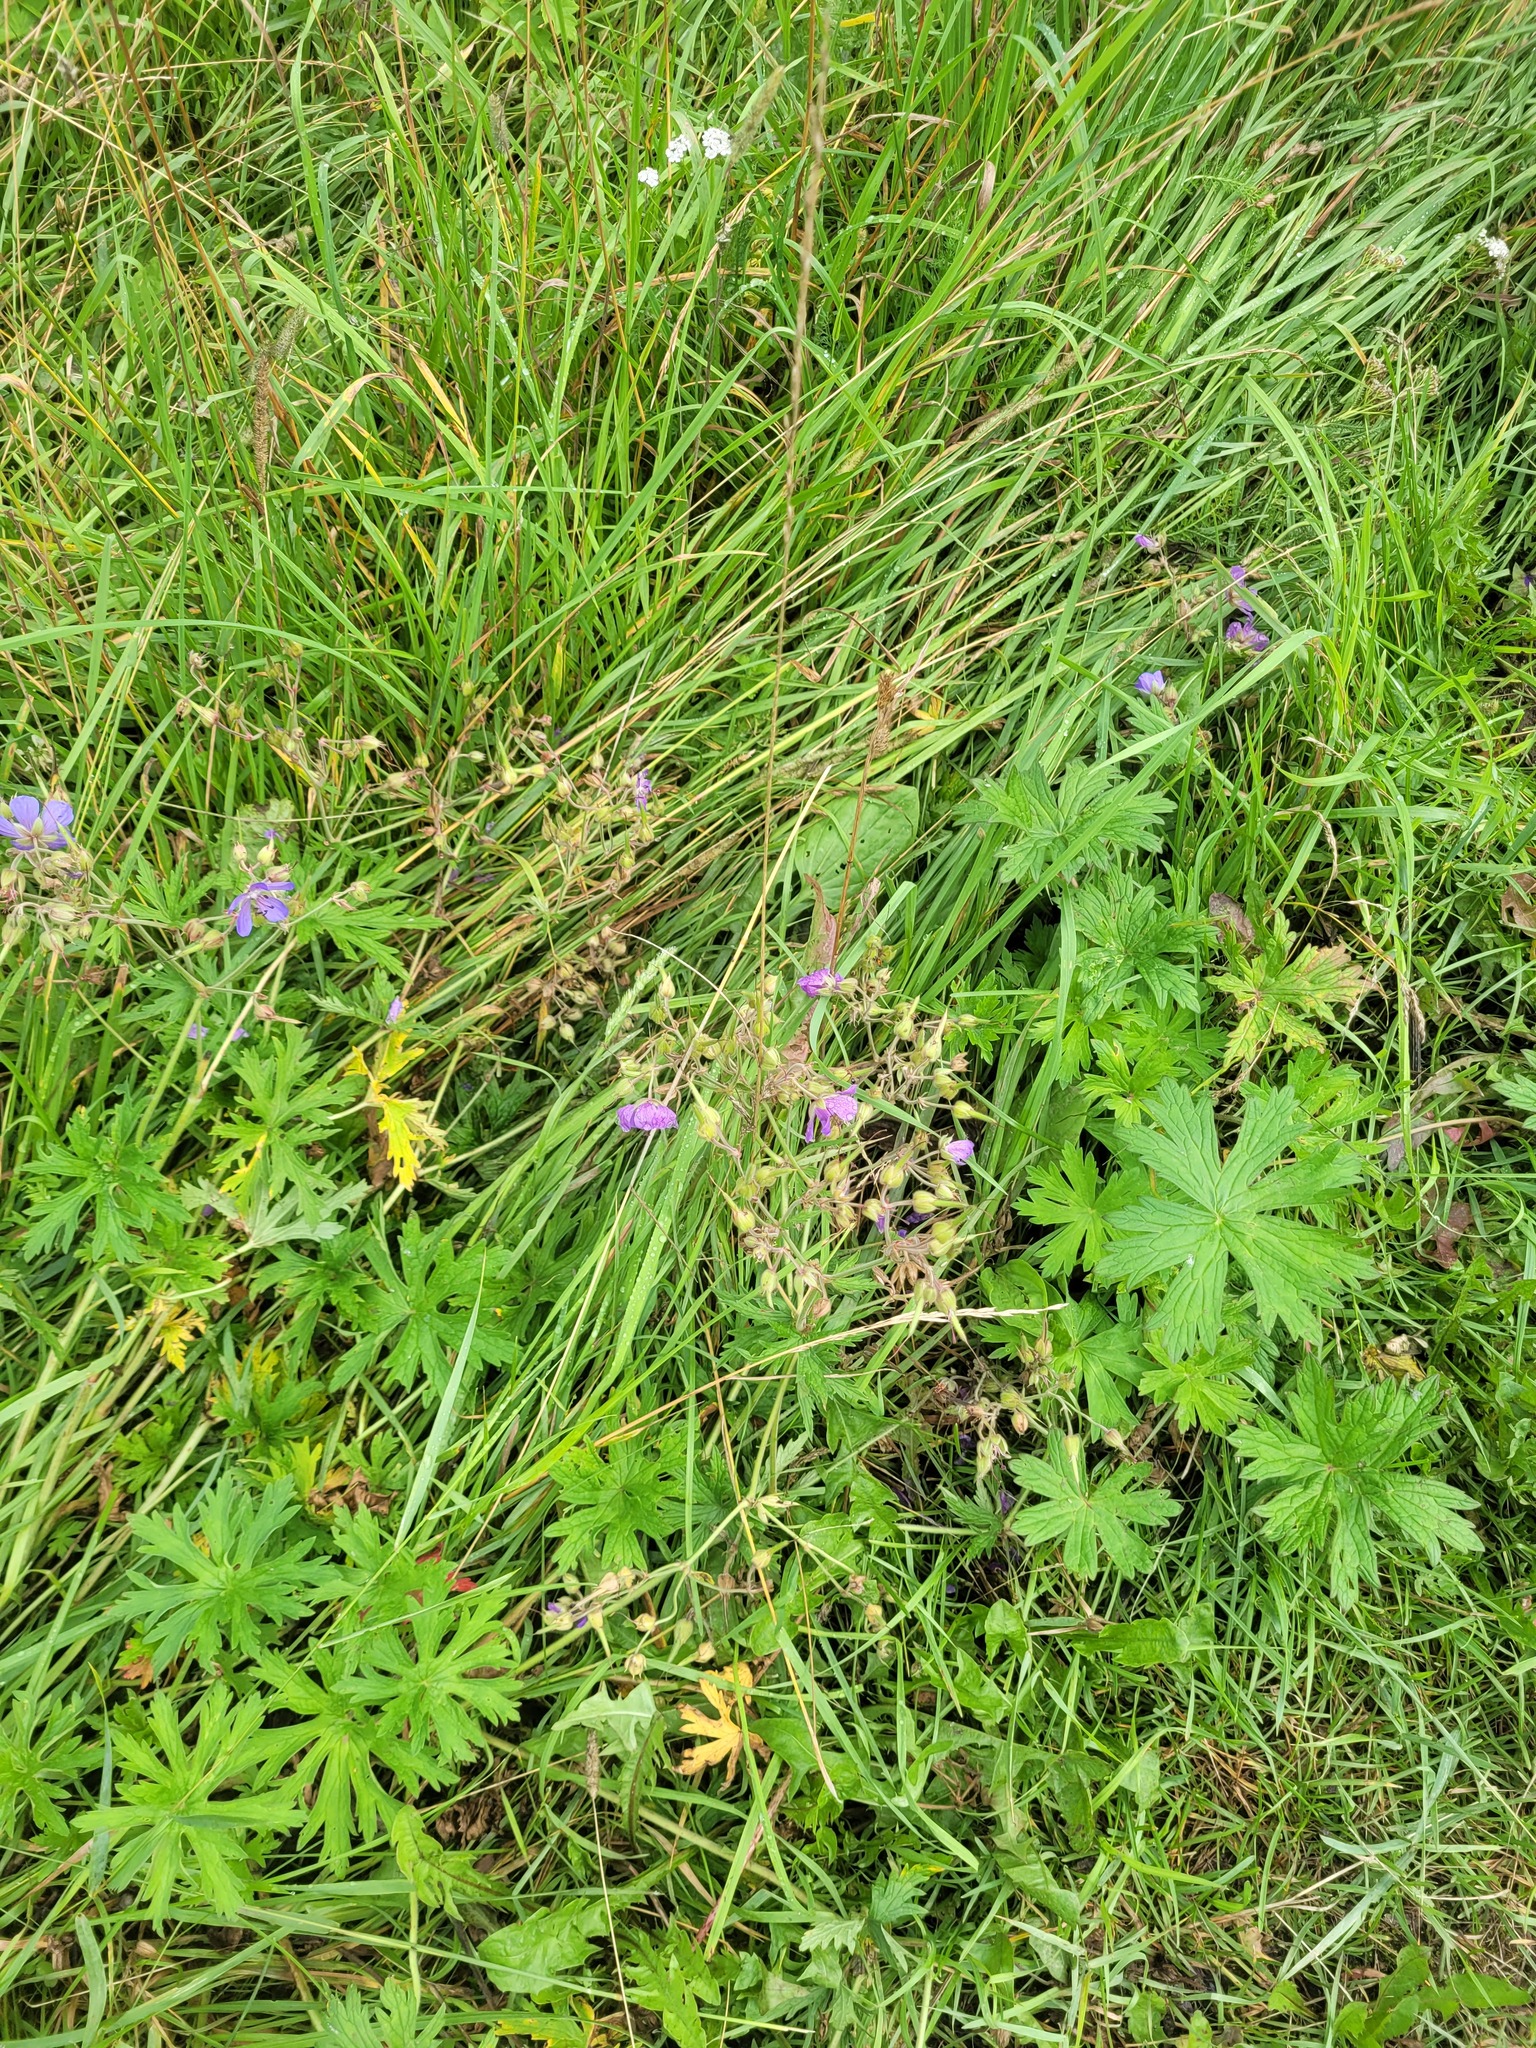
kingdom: Plantae
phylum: Tracheophyta
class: Magnoliopsida
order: Geraniales
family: Geraniaceae
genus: Geranium
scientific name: Geranium pratense
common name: Meadow crane's-bill
